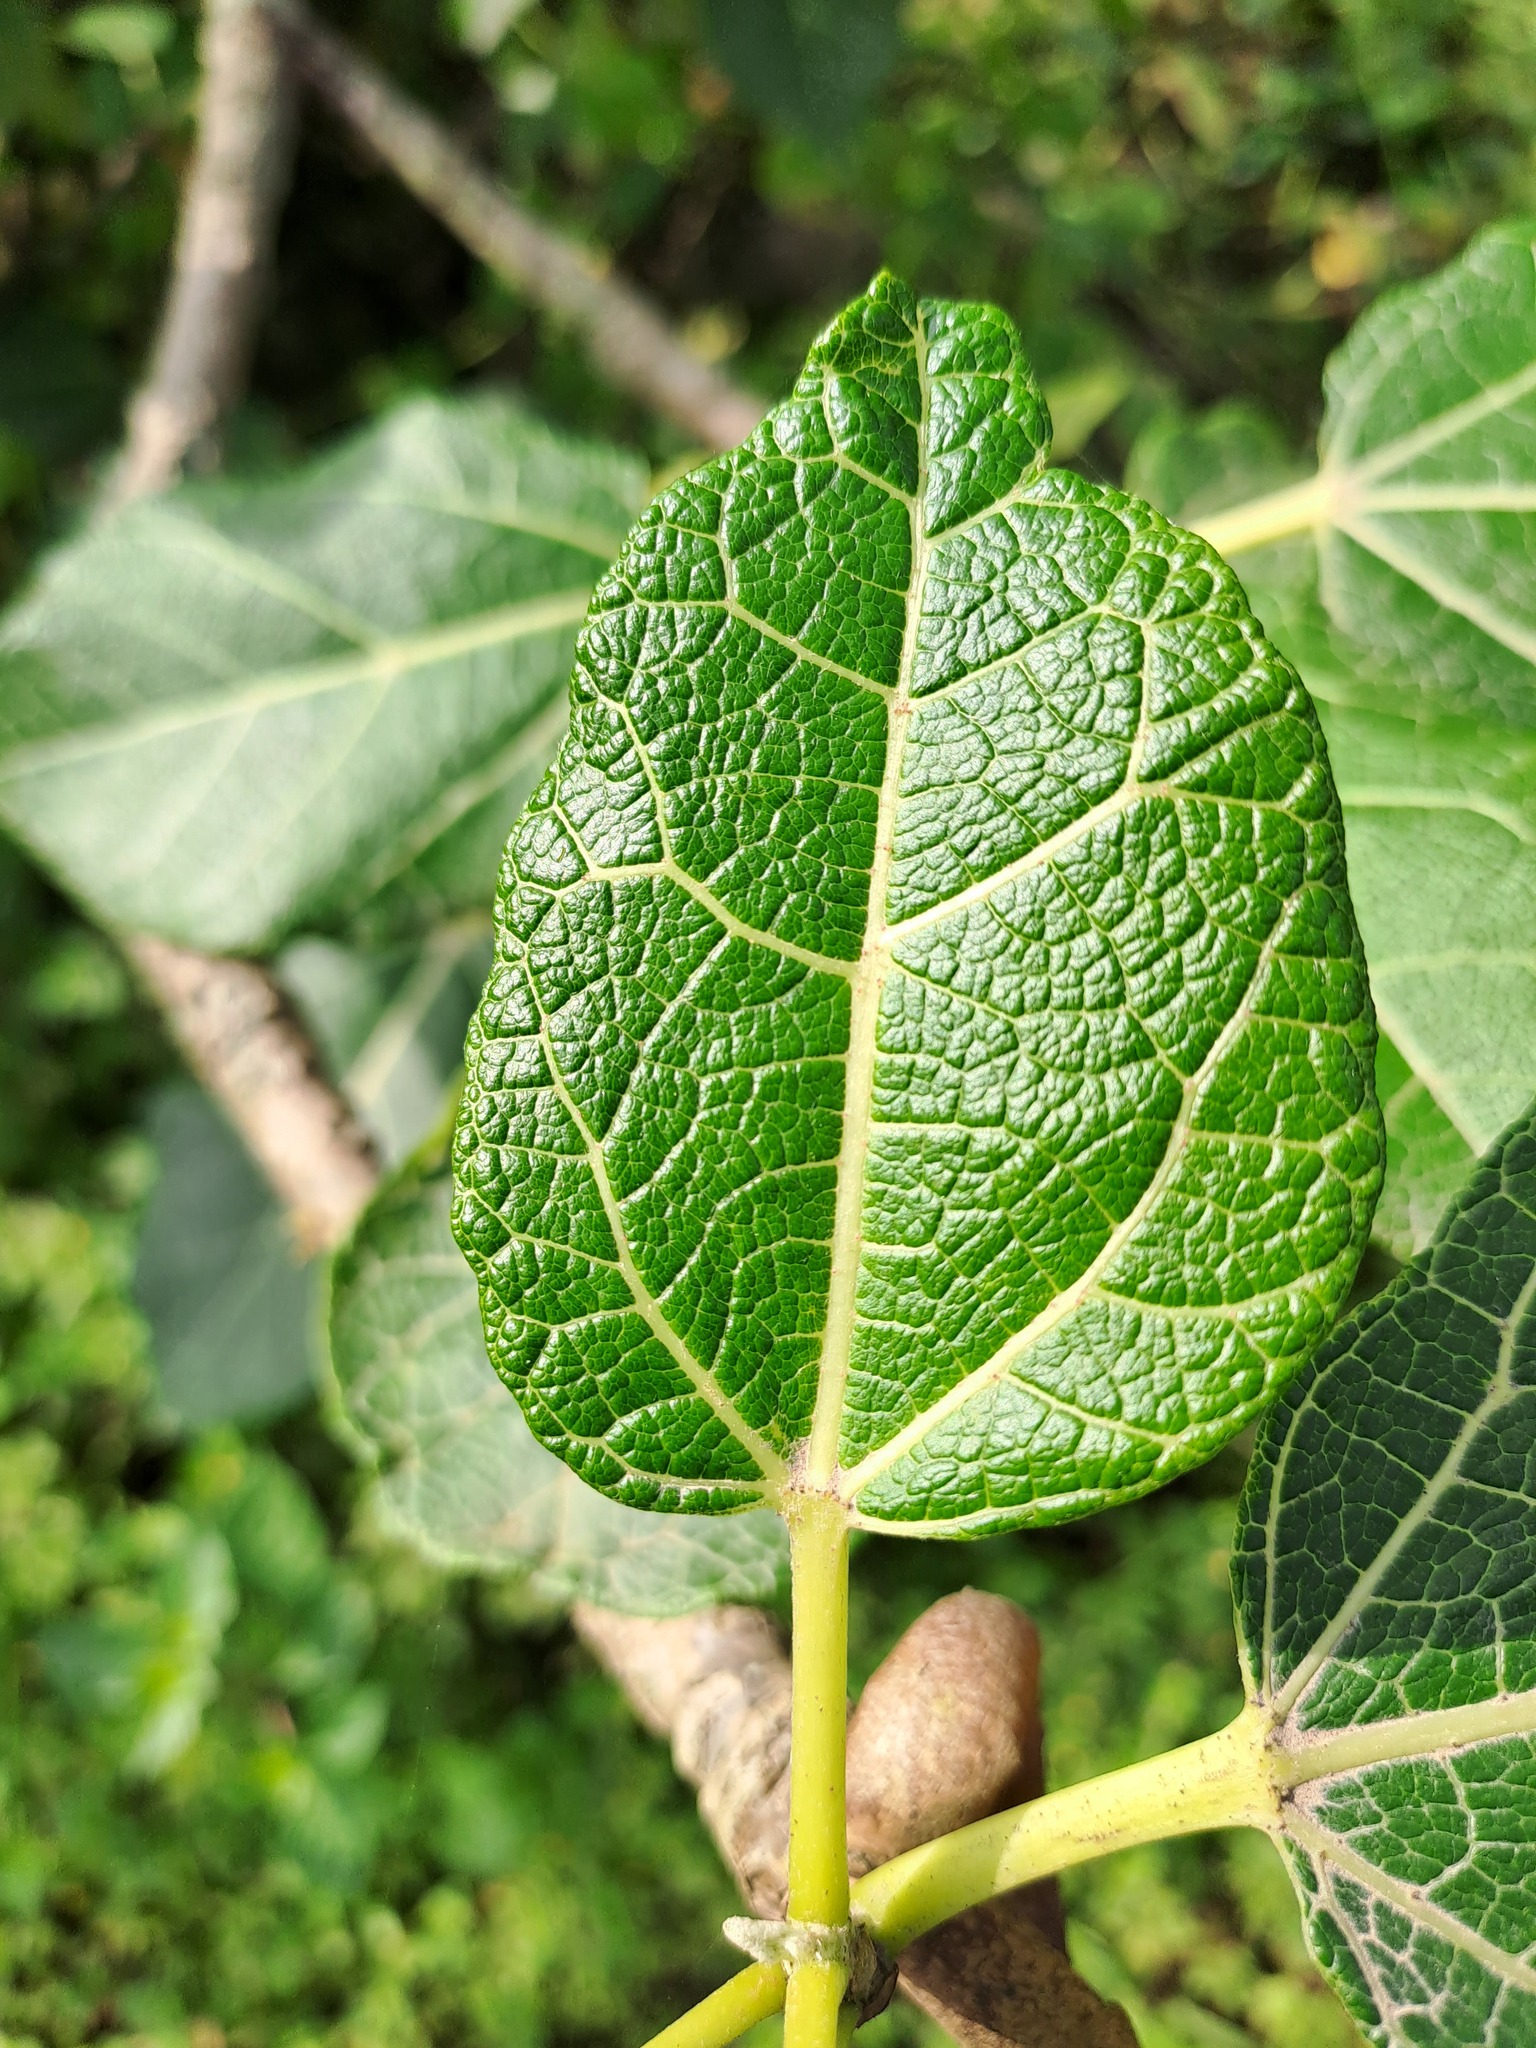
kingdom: Plantae
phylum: Tracheophyta
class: Magnoliopsida
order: Brassicales
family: Caricaceae
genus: Vasconcellea
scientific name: Vasconcellea candicans
